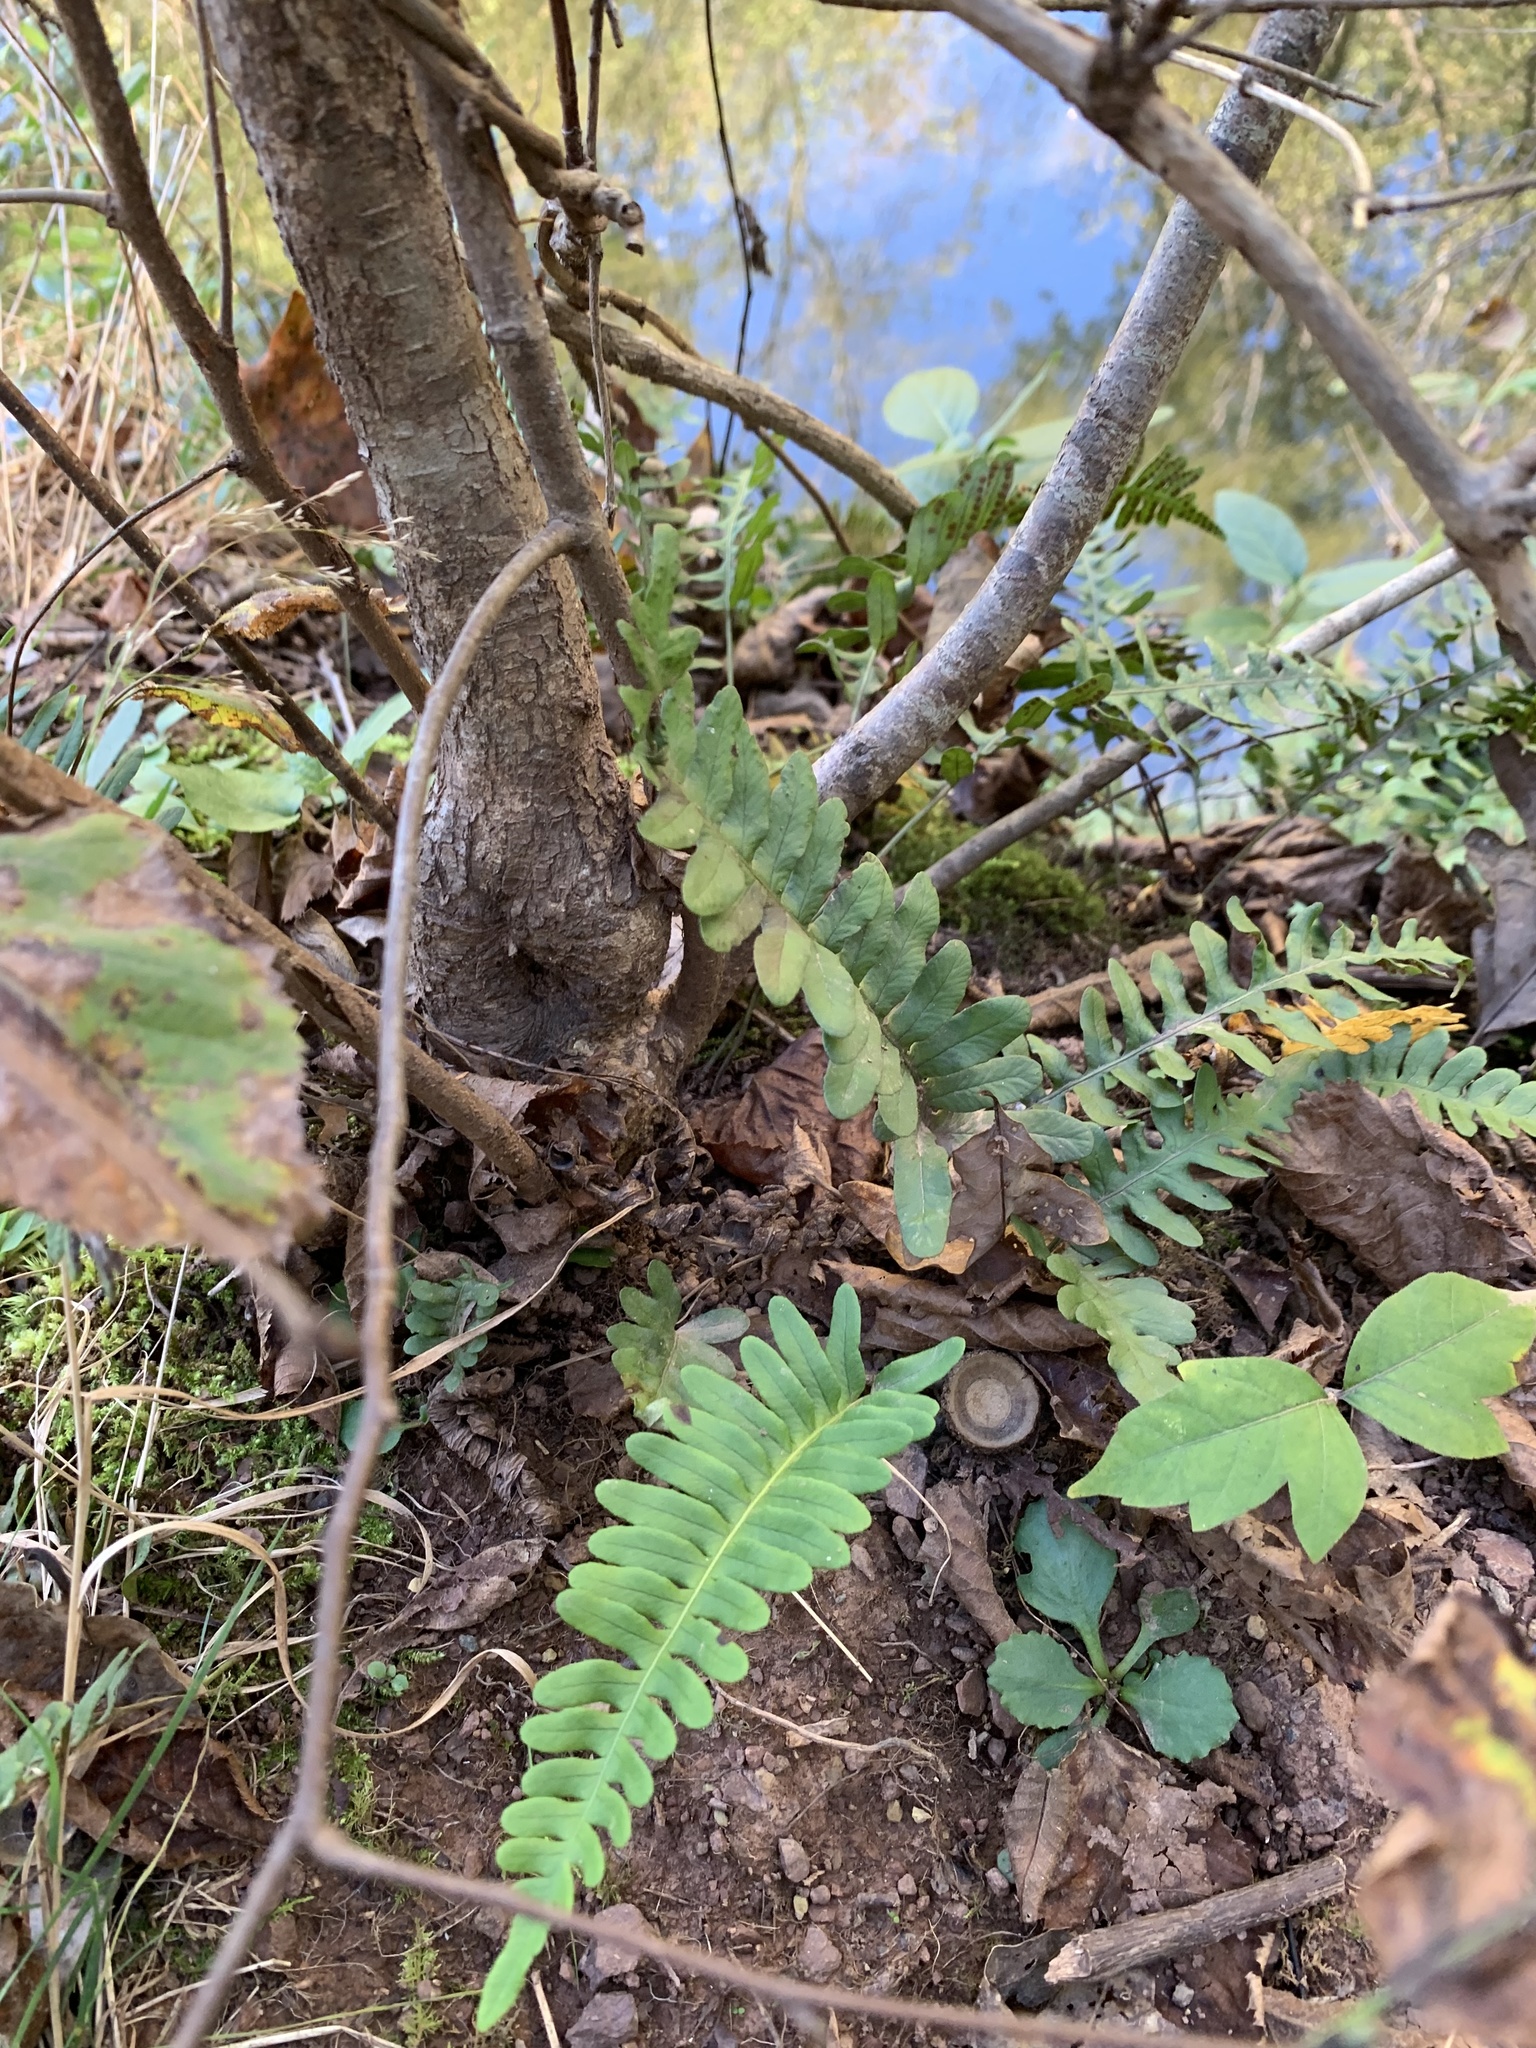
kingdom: Plantae
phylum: Tracheophyta
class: Polypodiopsida
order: Polypodiales
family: Polypodiaceae
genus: Polypodium
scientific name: Polypodium virginianum
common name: American wall fern
